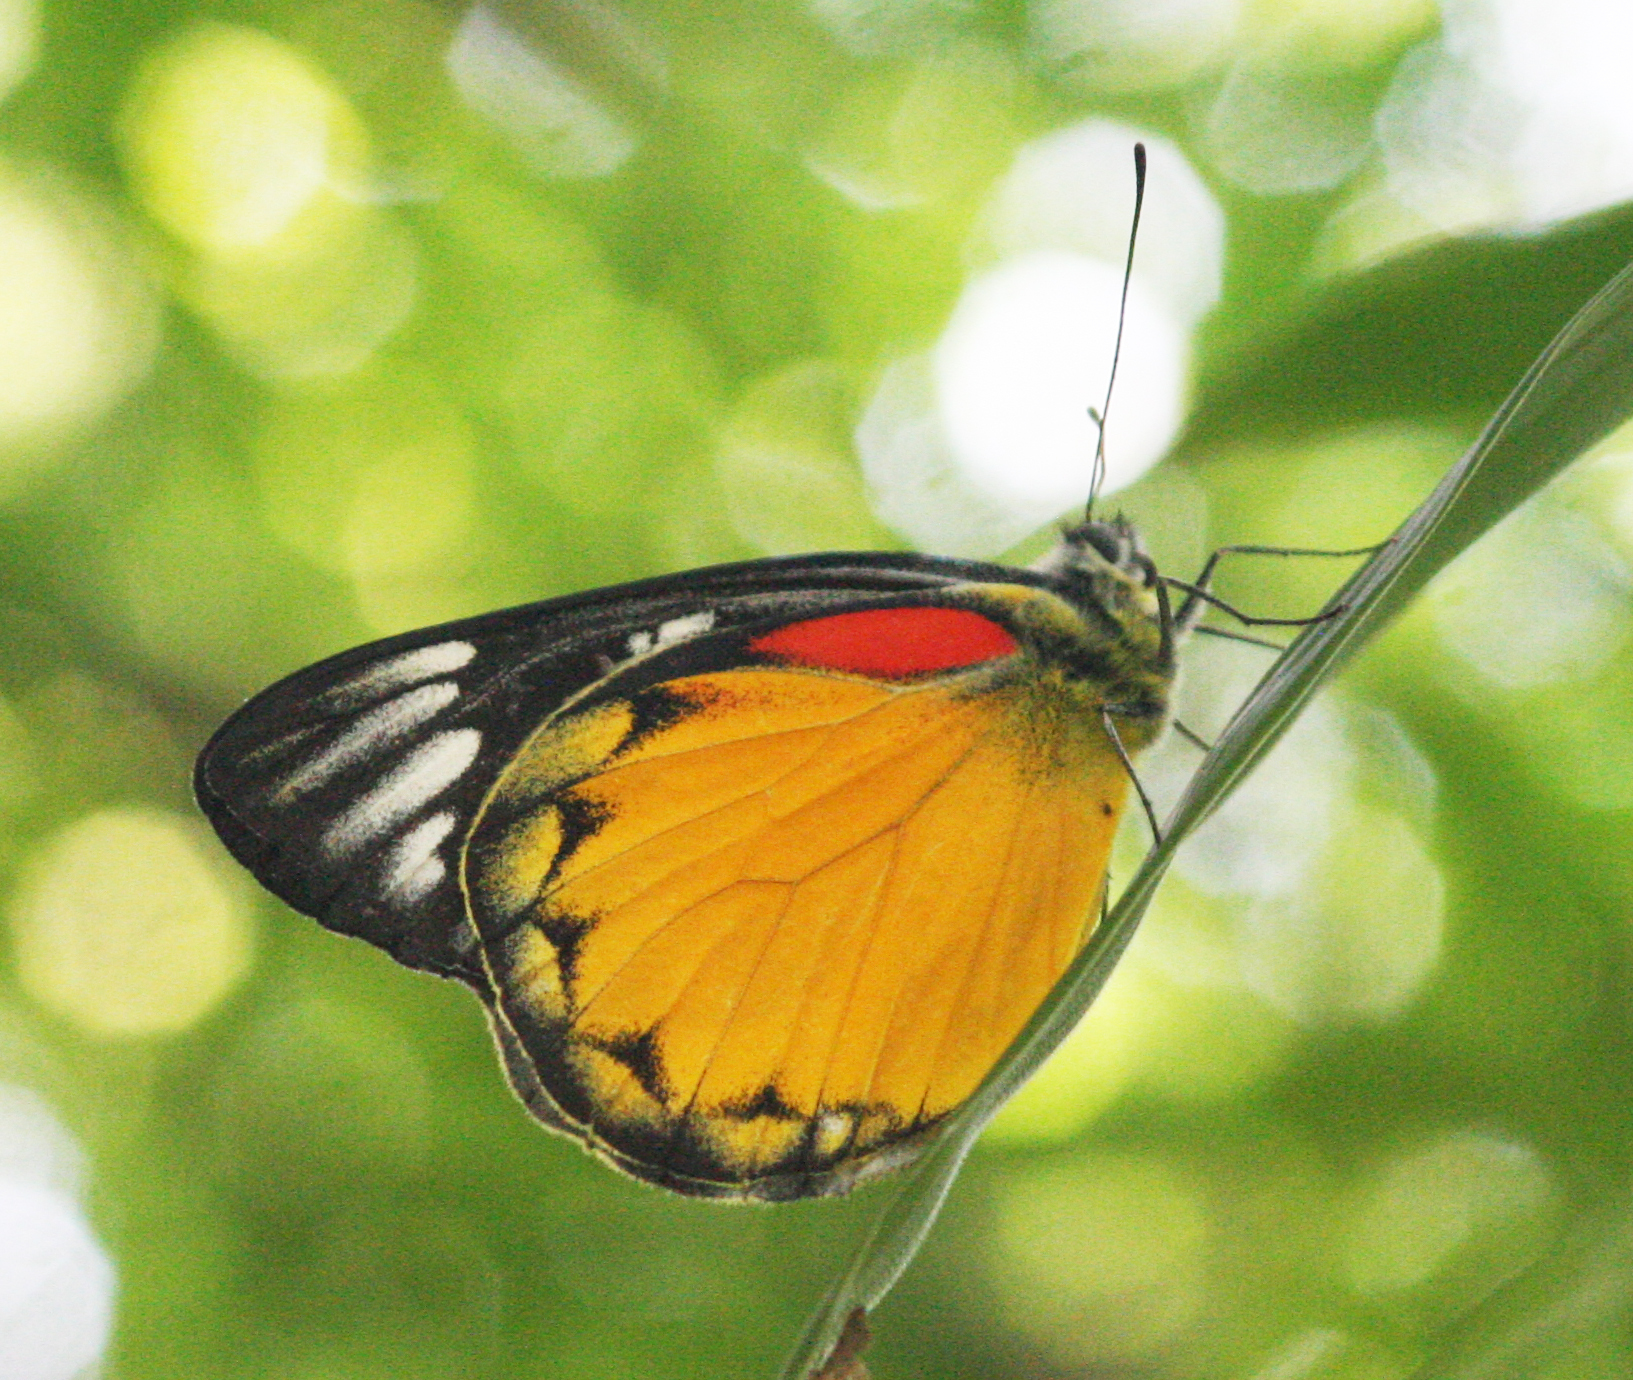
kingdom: Animalia
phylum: Arthropoda
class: Insecta
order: Lepidoptera
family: Pieridae
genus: Delias
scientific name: Delias descombesi
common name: Red-spot jezebel
